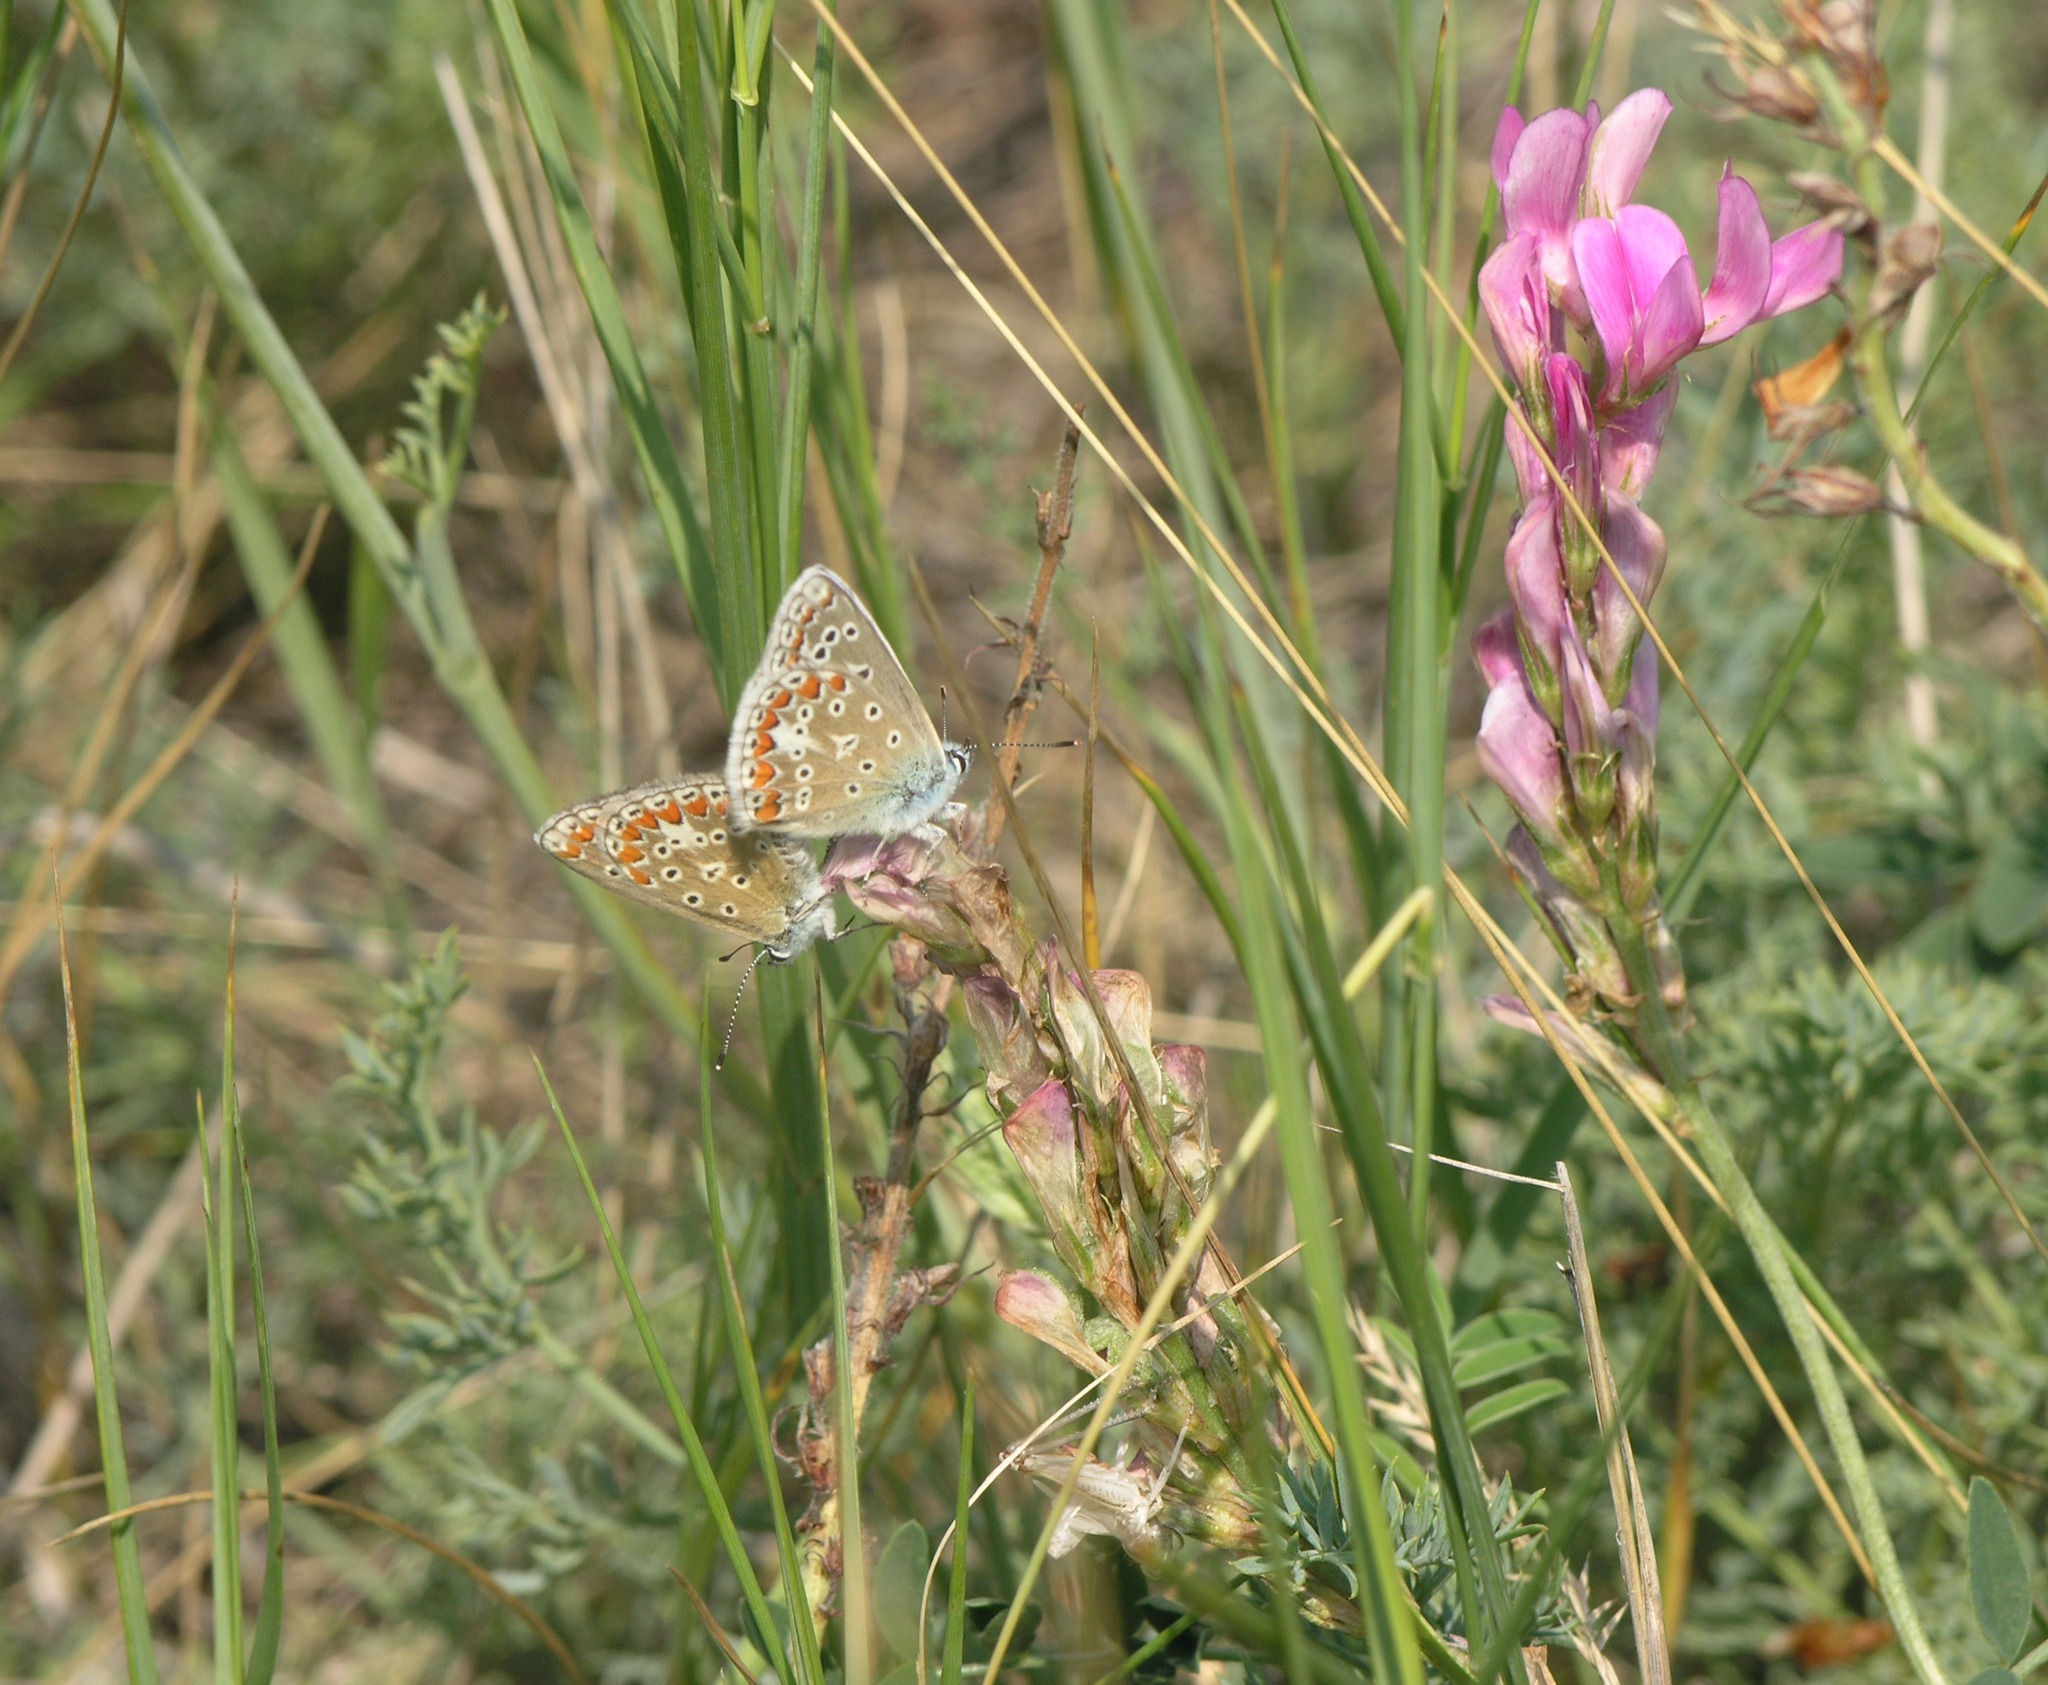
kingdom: Plantae
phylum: Tracheophyta
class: Magnoliopsida
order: Fabales
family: Fabaceae
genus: Hedysarum
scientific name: Hedysarum gmelinii
